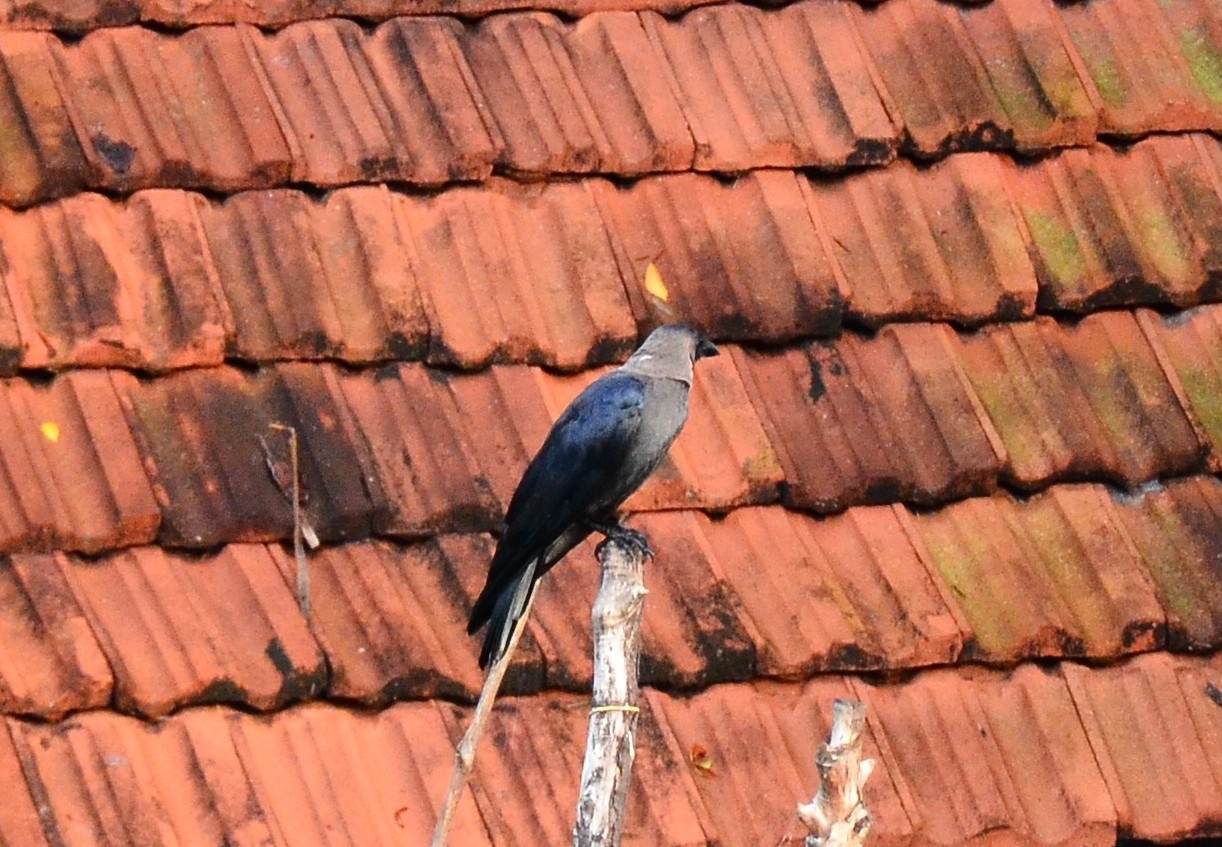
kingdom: Animalia
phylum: Chordata
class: Aves
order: Passeriformes
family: Corvidae
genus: Corvus
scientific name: Corvus splendens
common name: House crow
